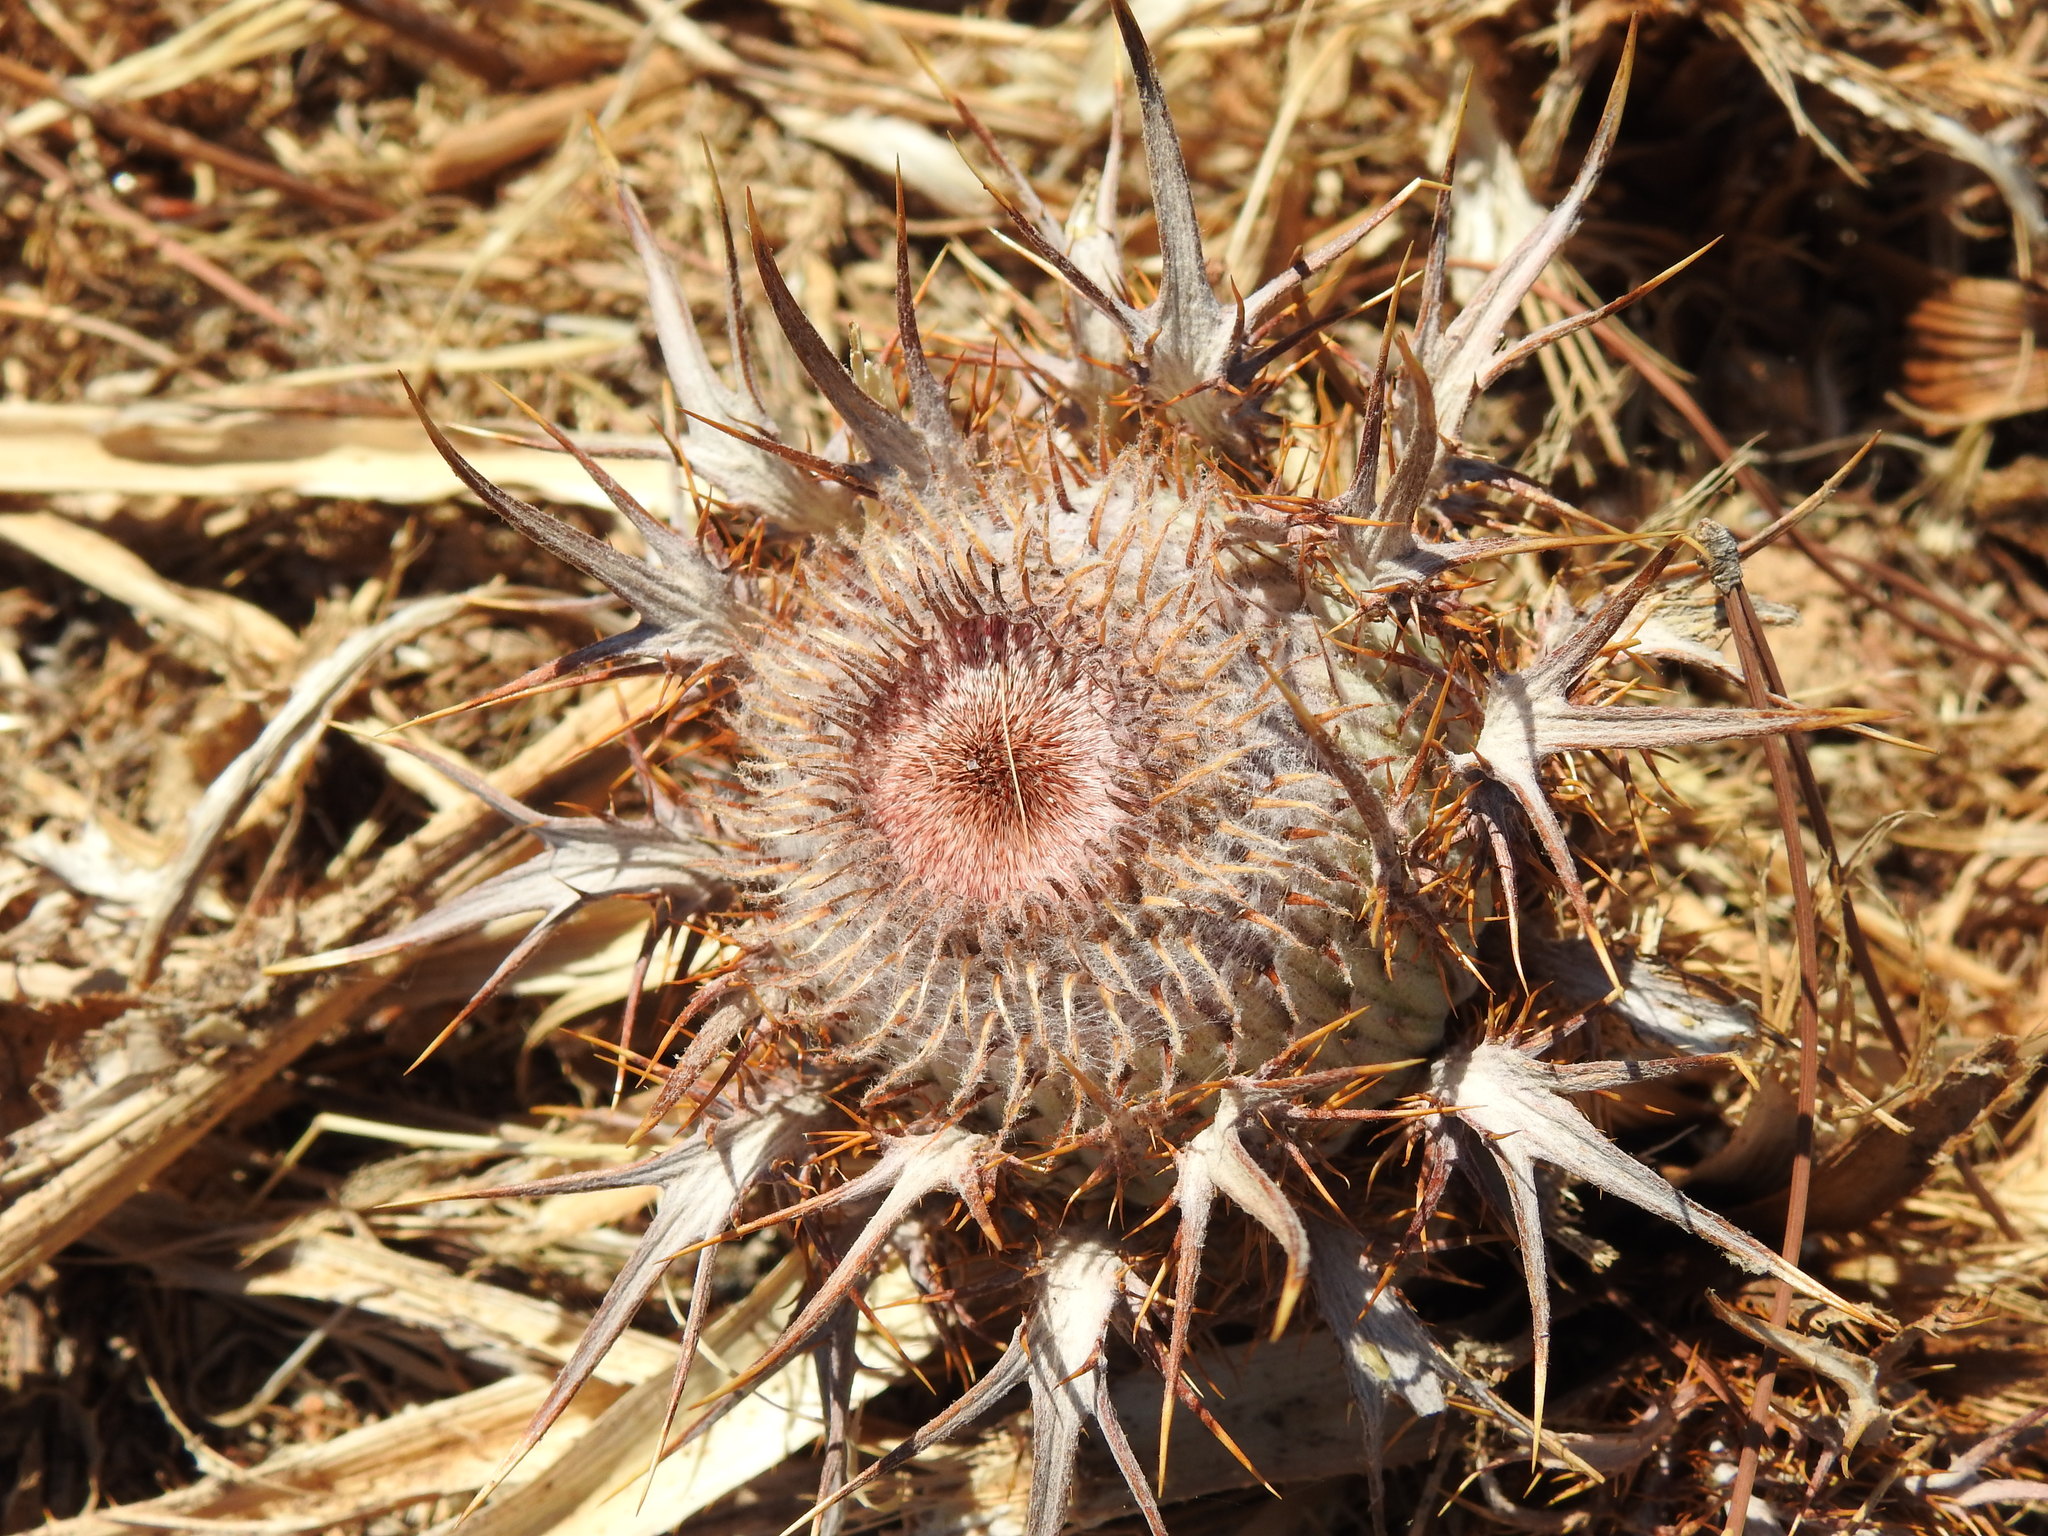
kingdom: Plantae
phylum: Tracheophyta
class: Magnoliopsida
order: Asterales
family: Asteraceae
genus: Chamaeleon
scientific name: Chamaeleon gummifer
